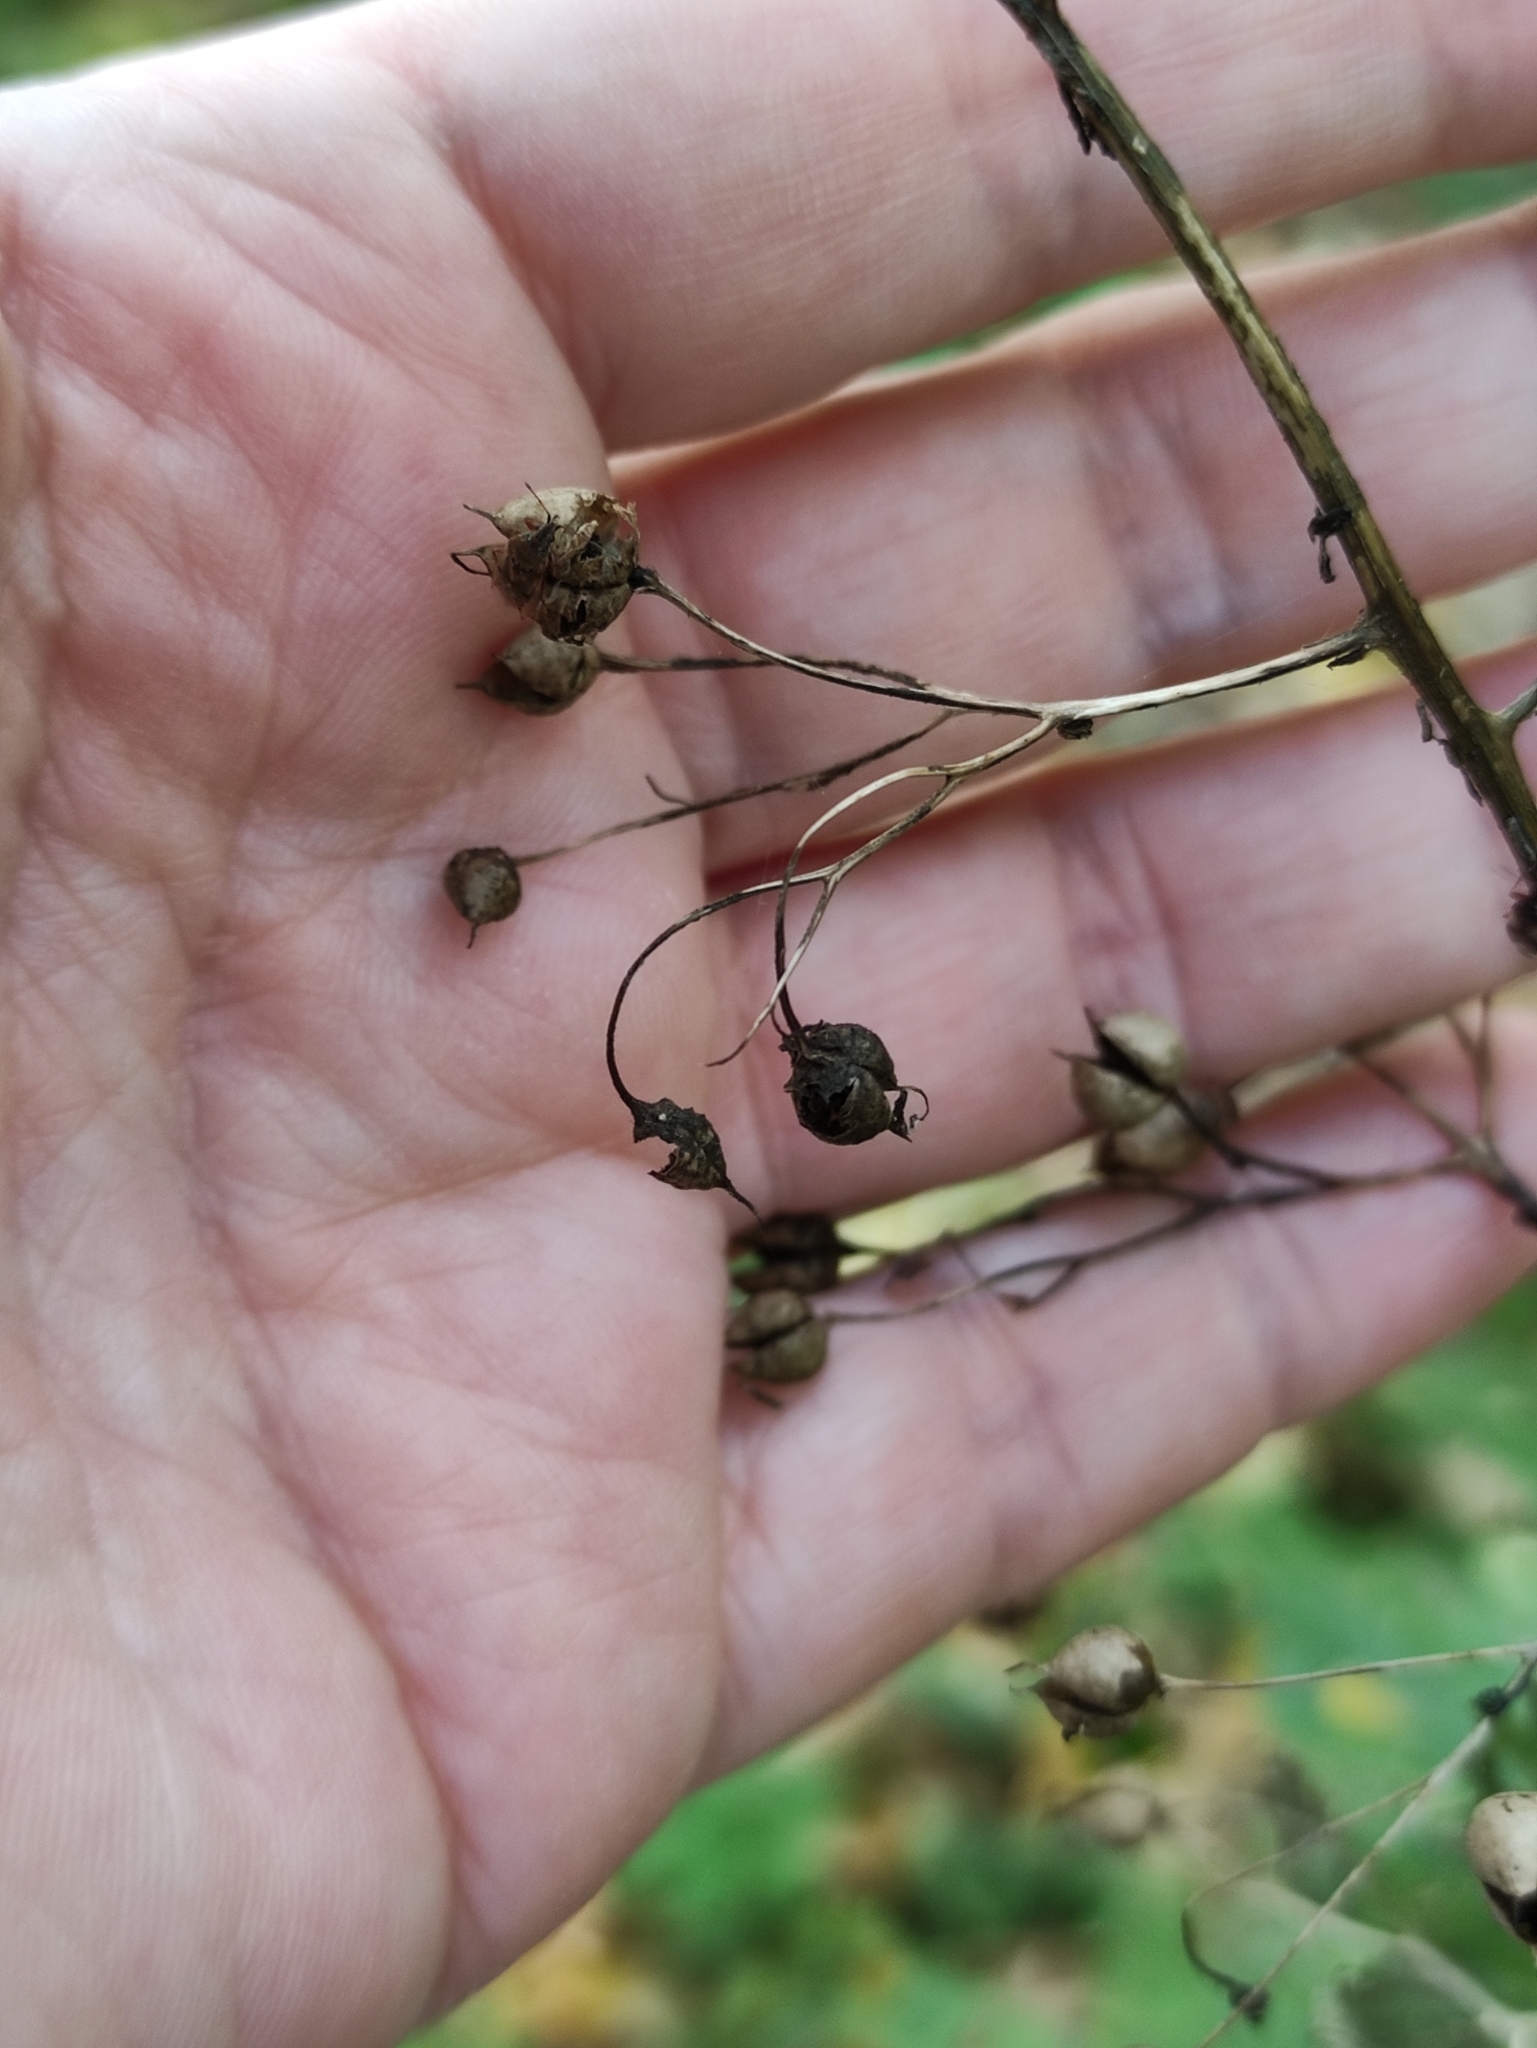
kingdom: Plantae
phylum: Tracheophyta
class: Magnoliopsida
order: Lamiales
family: Scrophulariaceae
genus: Scrophularia
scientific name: Scrophularia nodosa
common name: Common figwort
